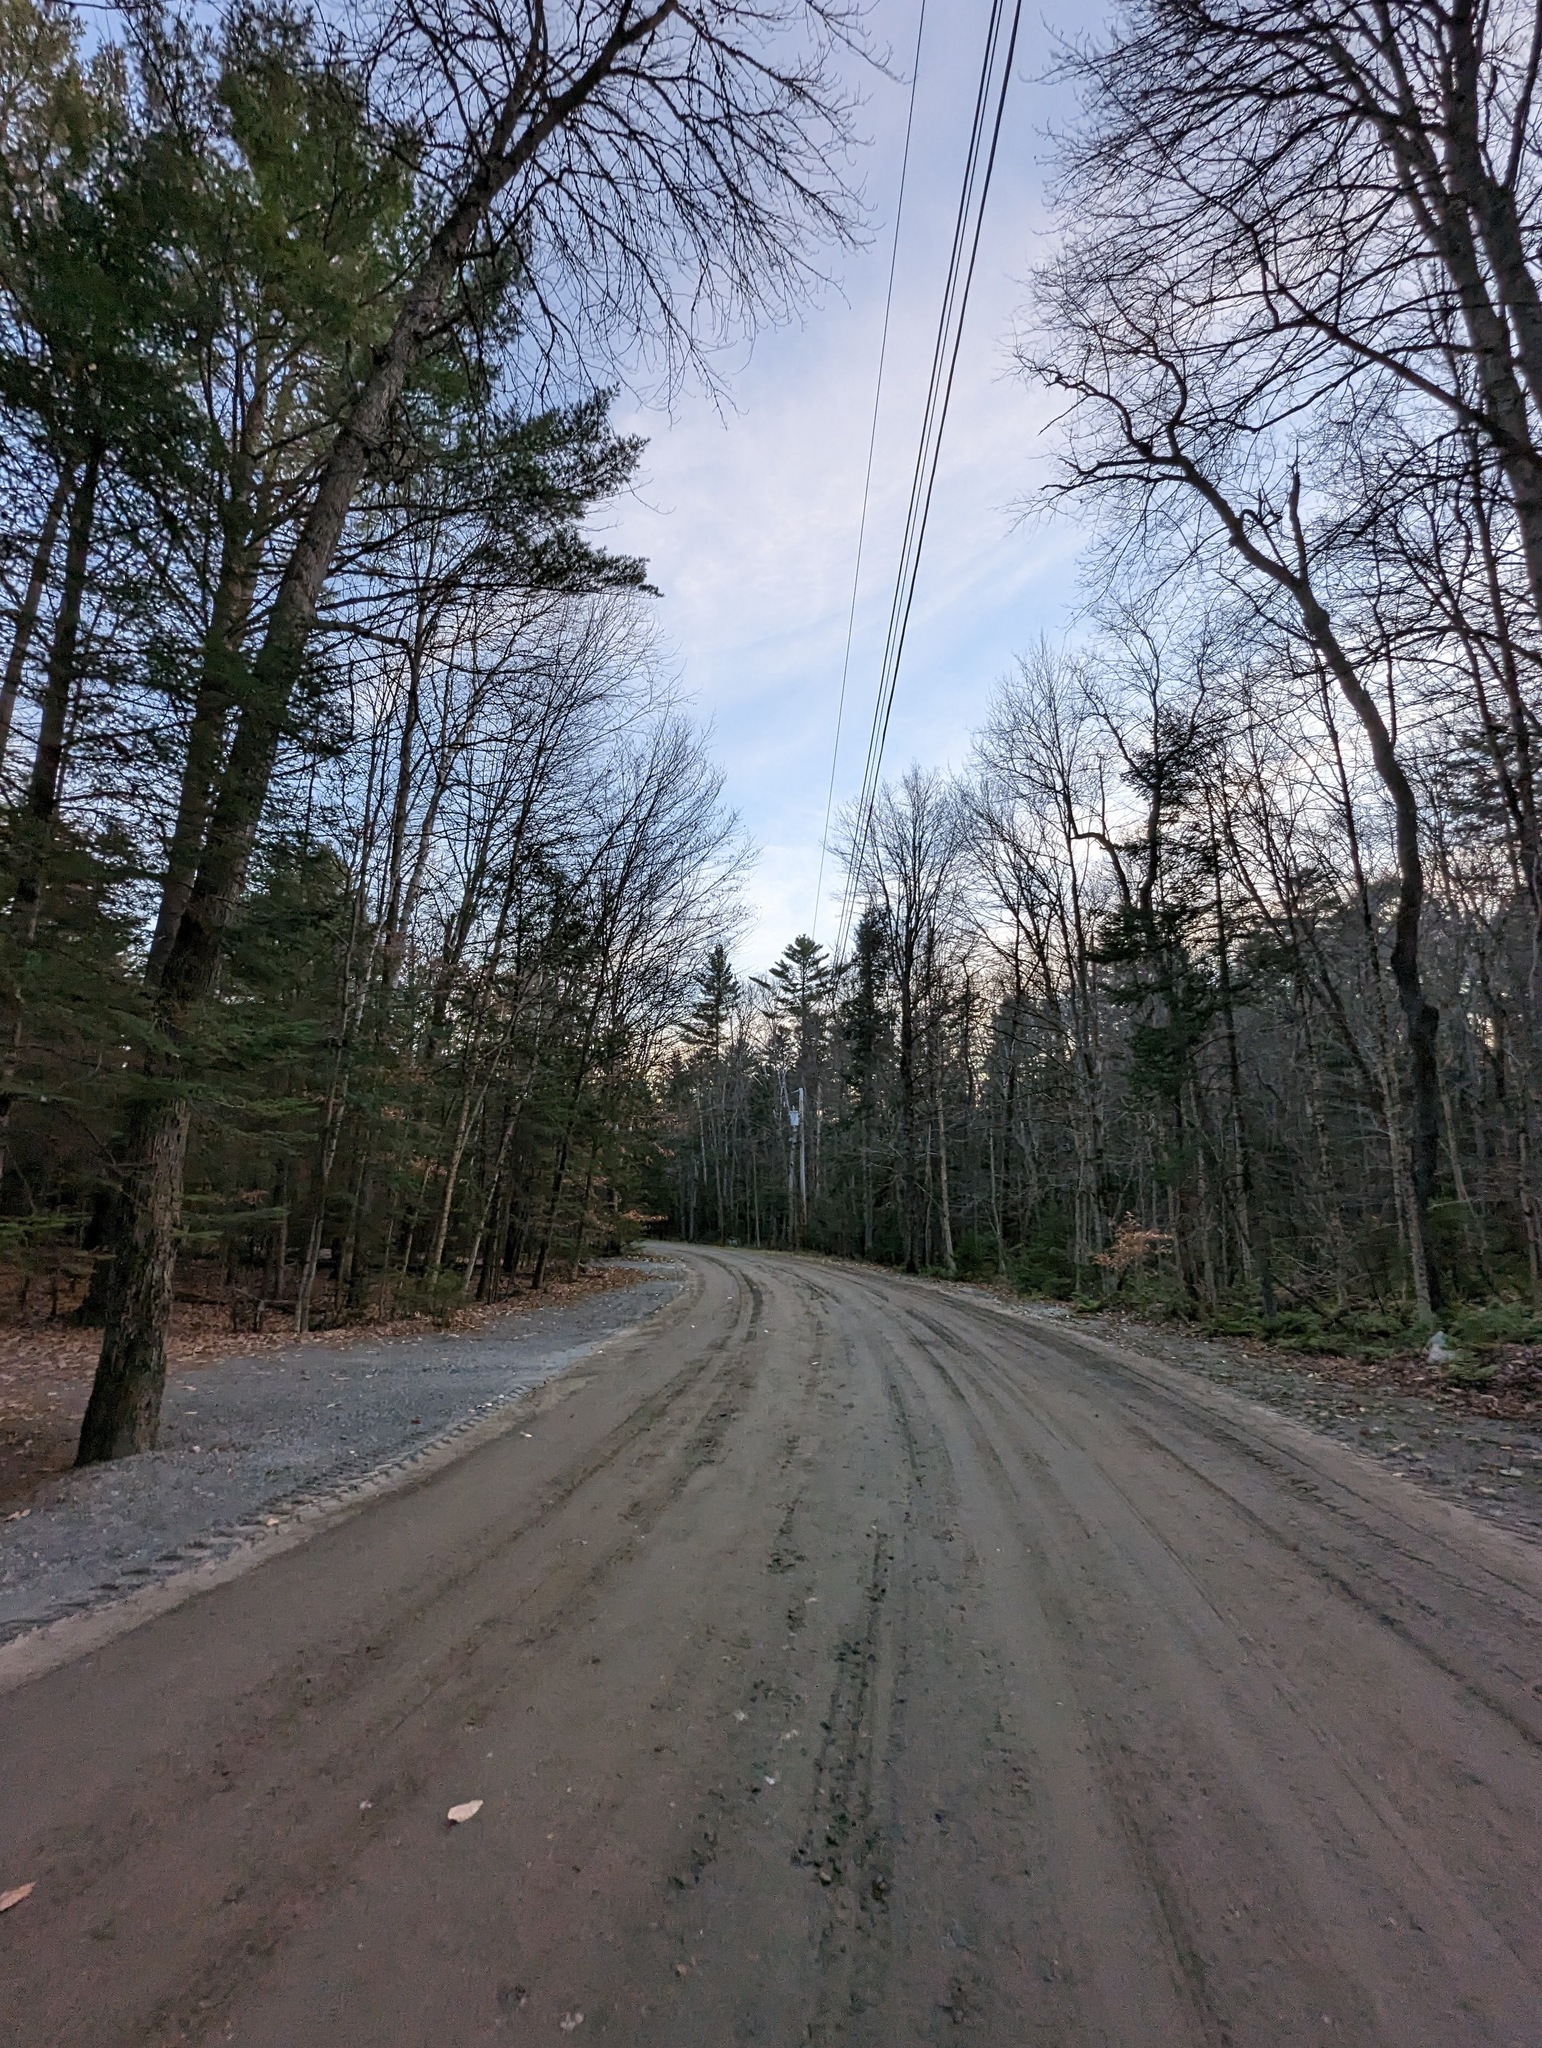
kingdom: Plantae
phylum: Tracheophyta
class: Pinopsida
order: Pinales
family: Pinaceae
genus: Pinus
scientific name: Pinus strobus
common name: Weymouth pine
